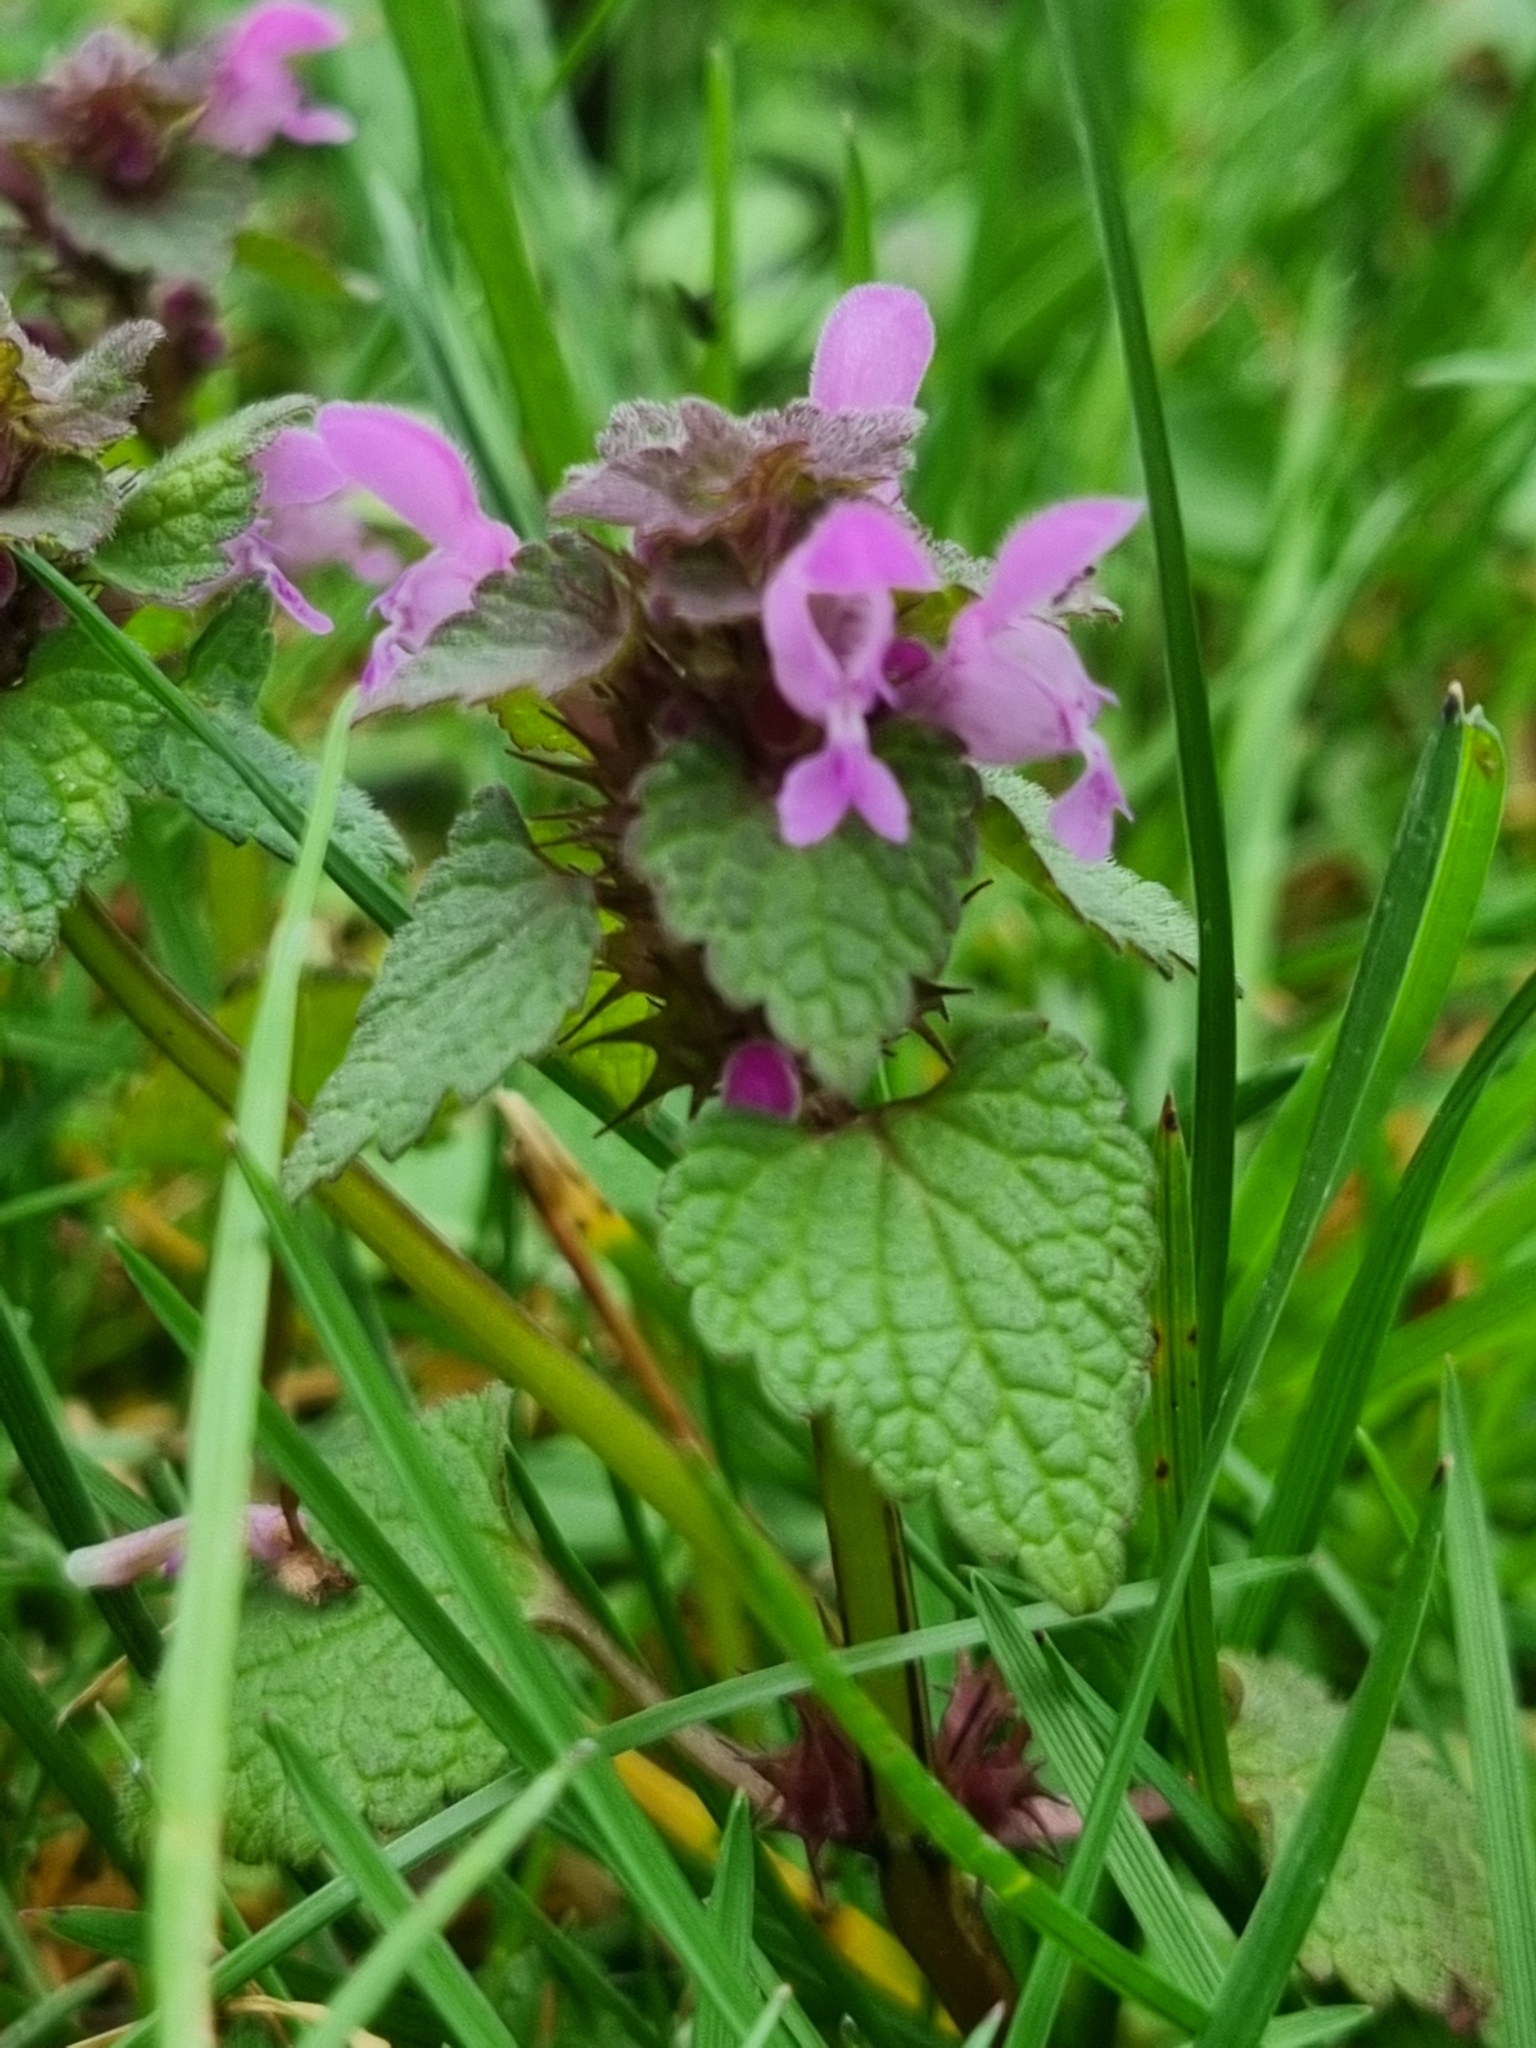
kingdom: Plantae
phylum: Tracheophyta
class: Magnoliopsida
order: Lamiales
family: Lamiaceae
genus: Lamium
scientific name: Lamium purpureum
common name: Red dead-nettle
